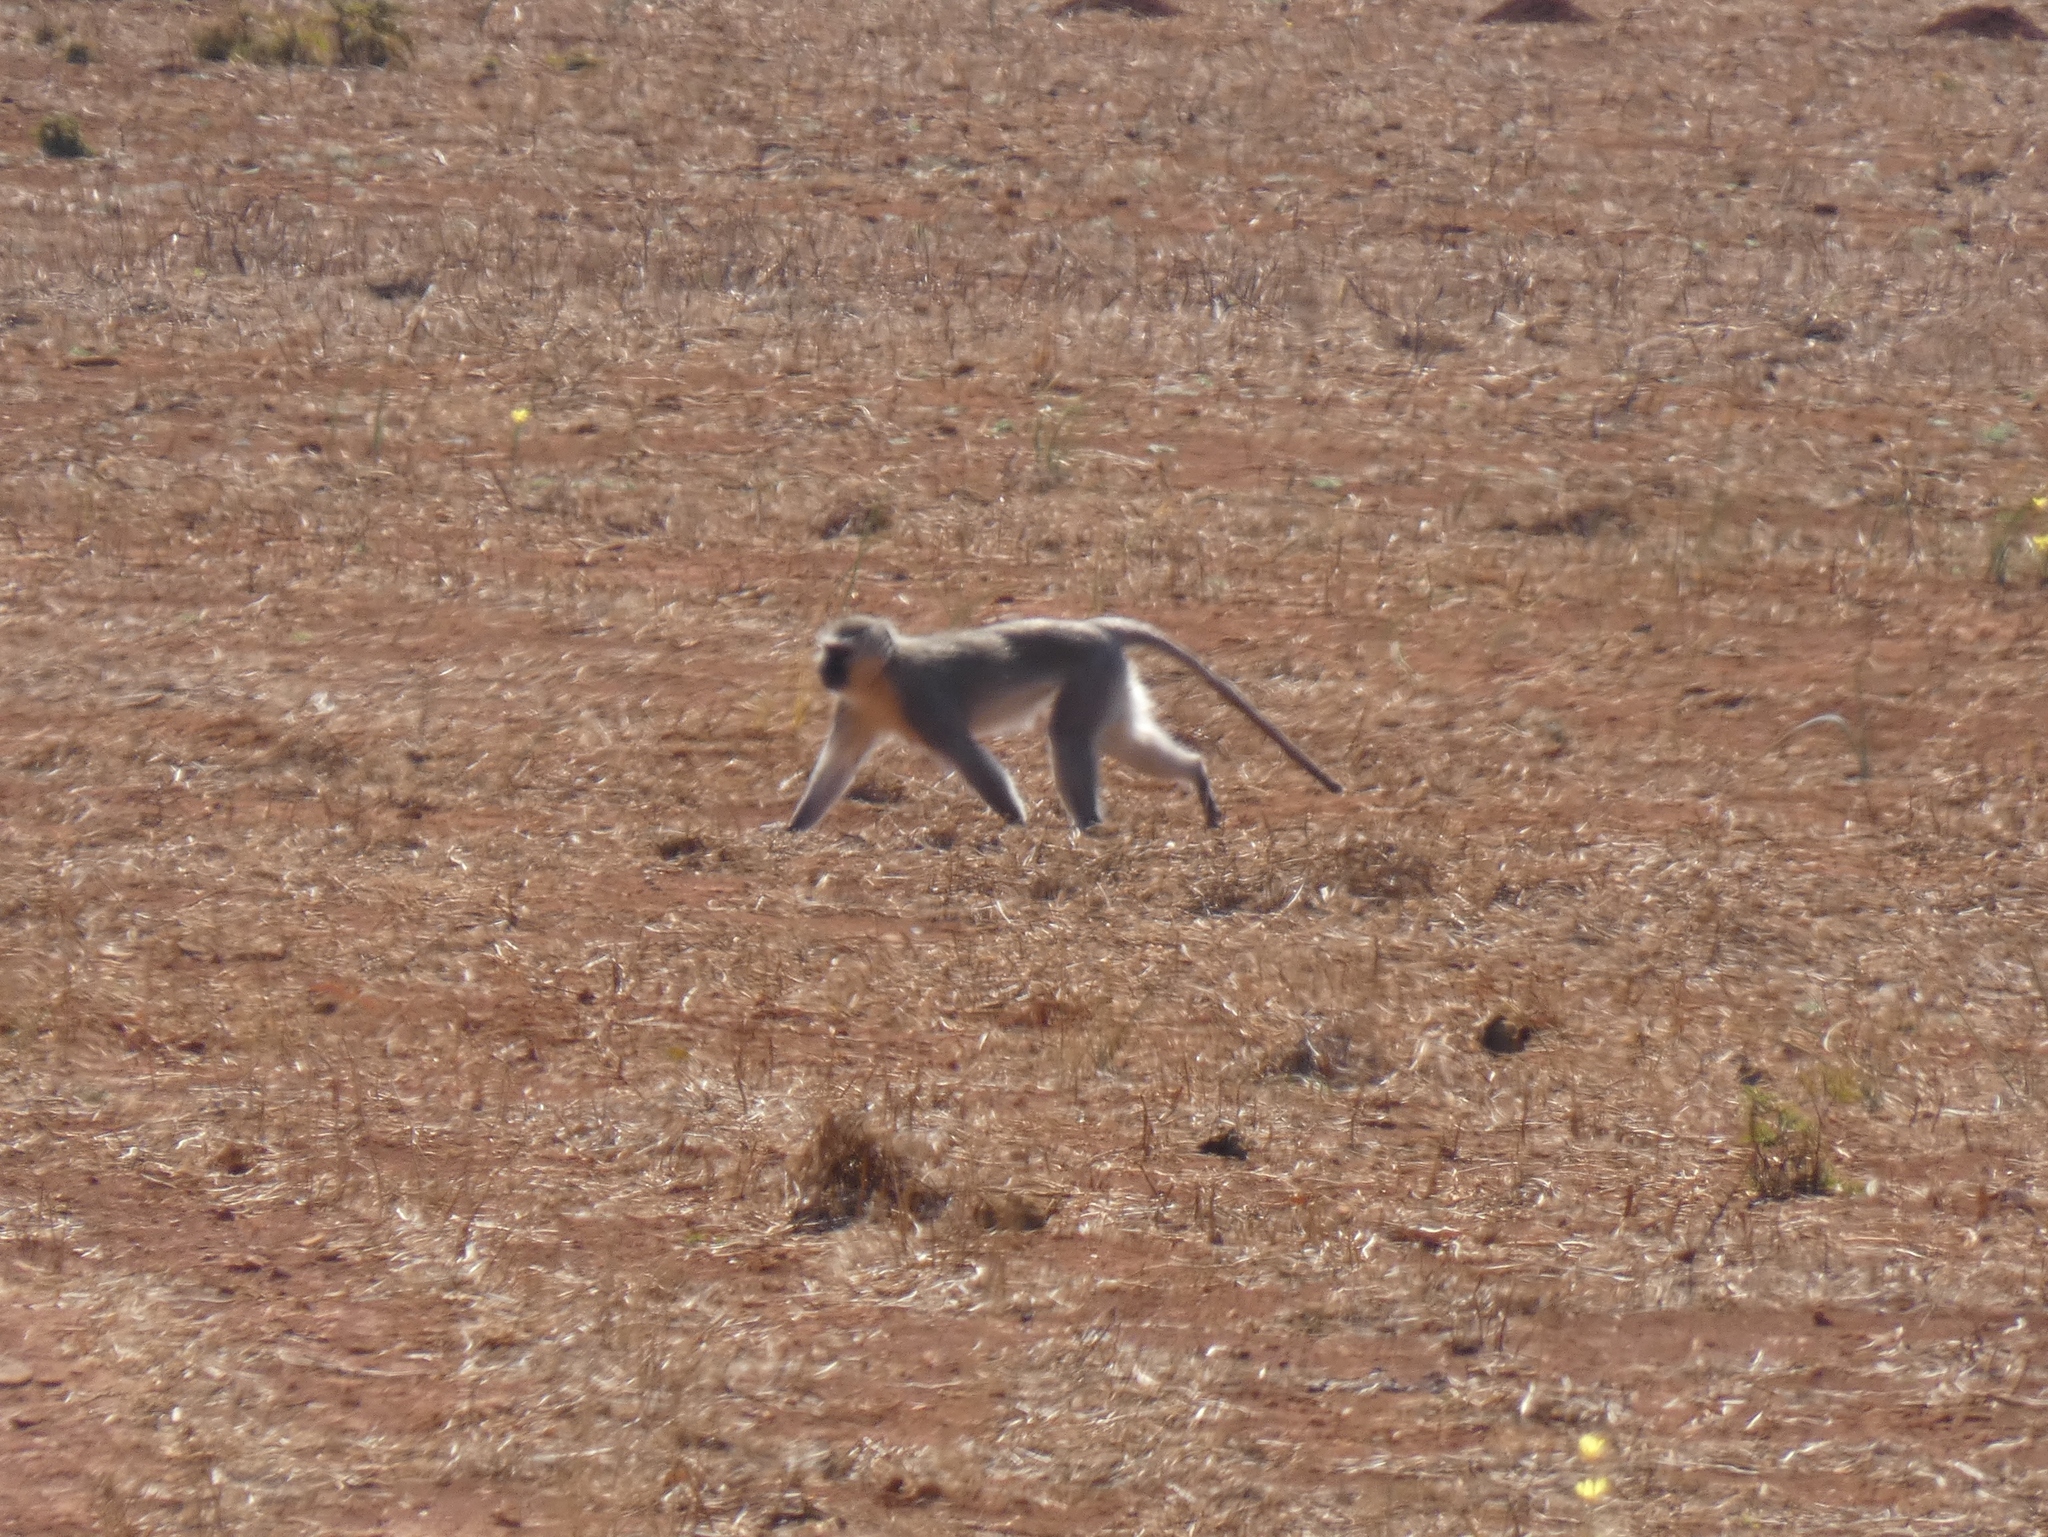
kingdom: Animalia
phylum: Chordata
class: Mammalia
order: Primates
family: Cercopithecidae
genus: Chlorocebus
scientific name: Chlorocebus pygerythrus
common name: Vervet monkey
